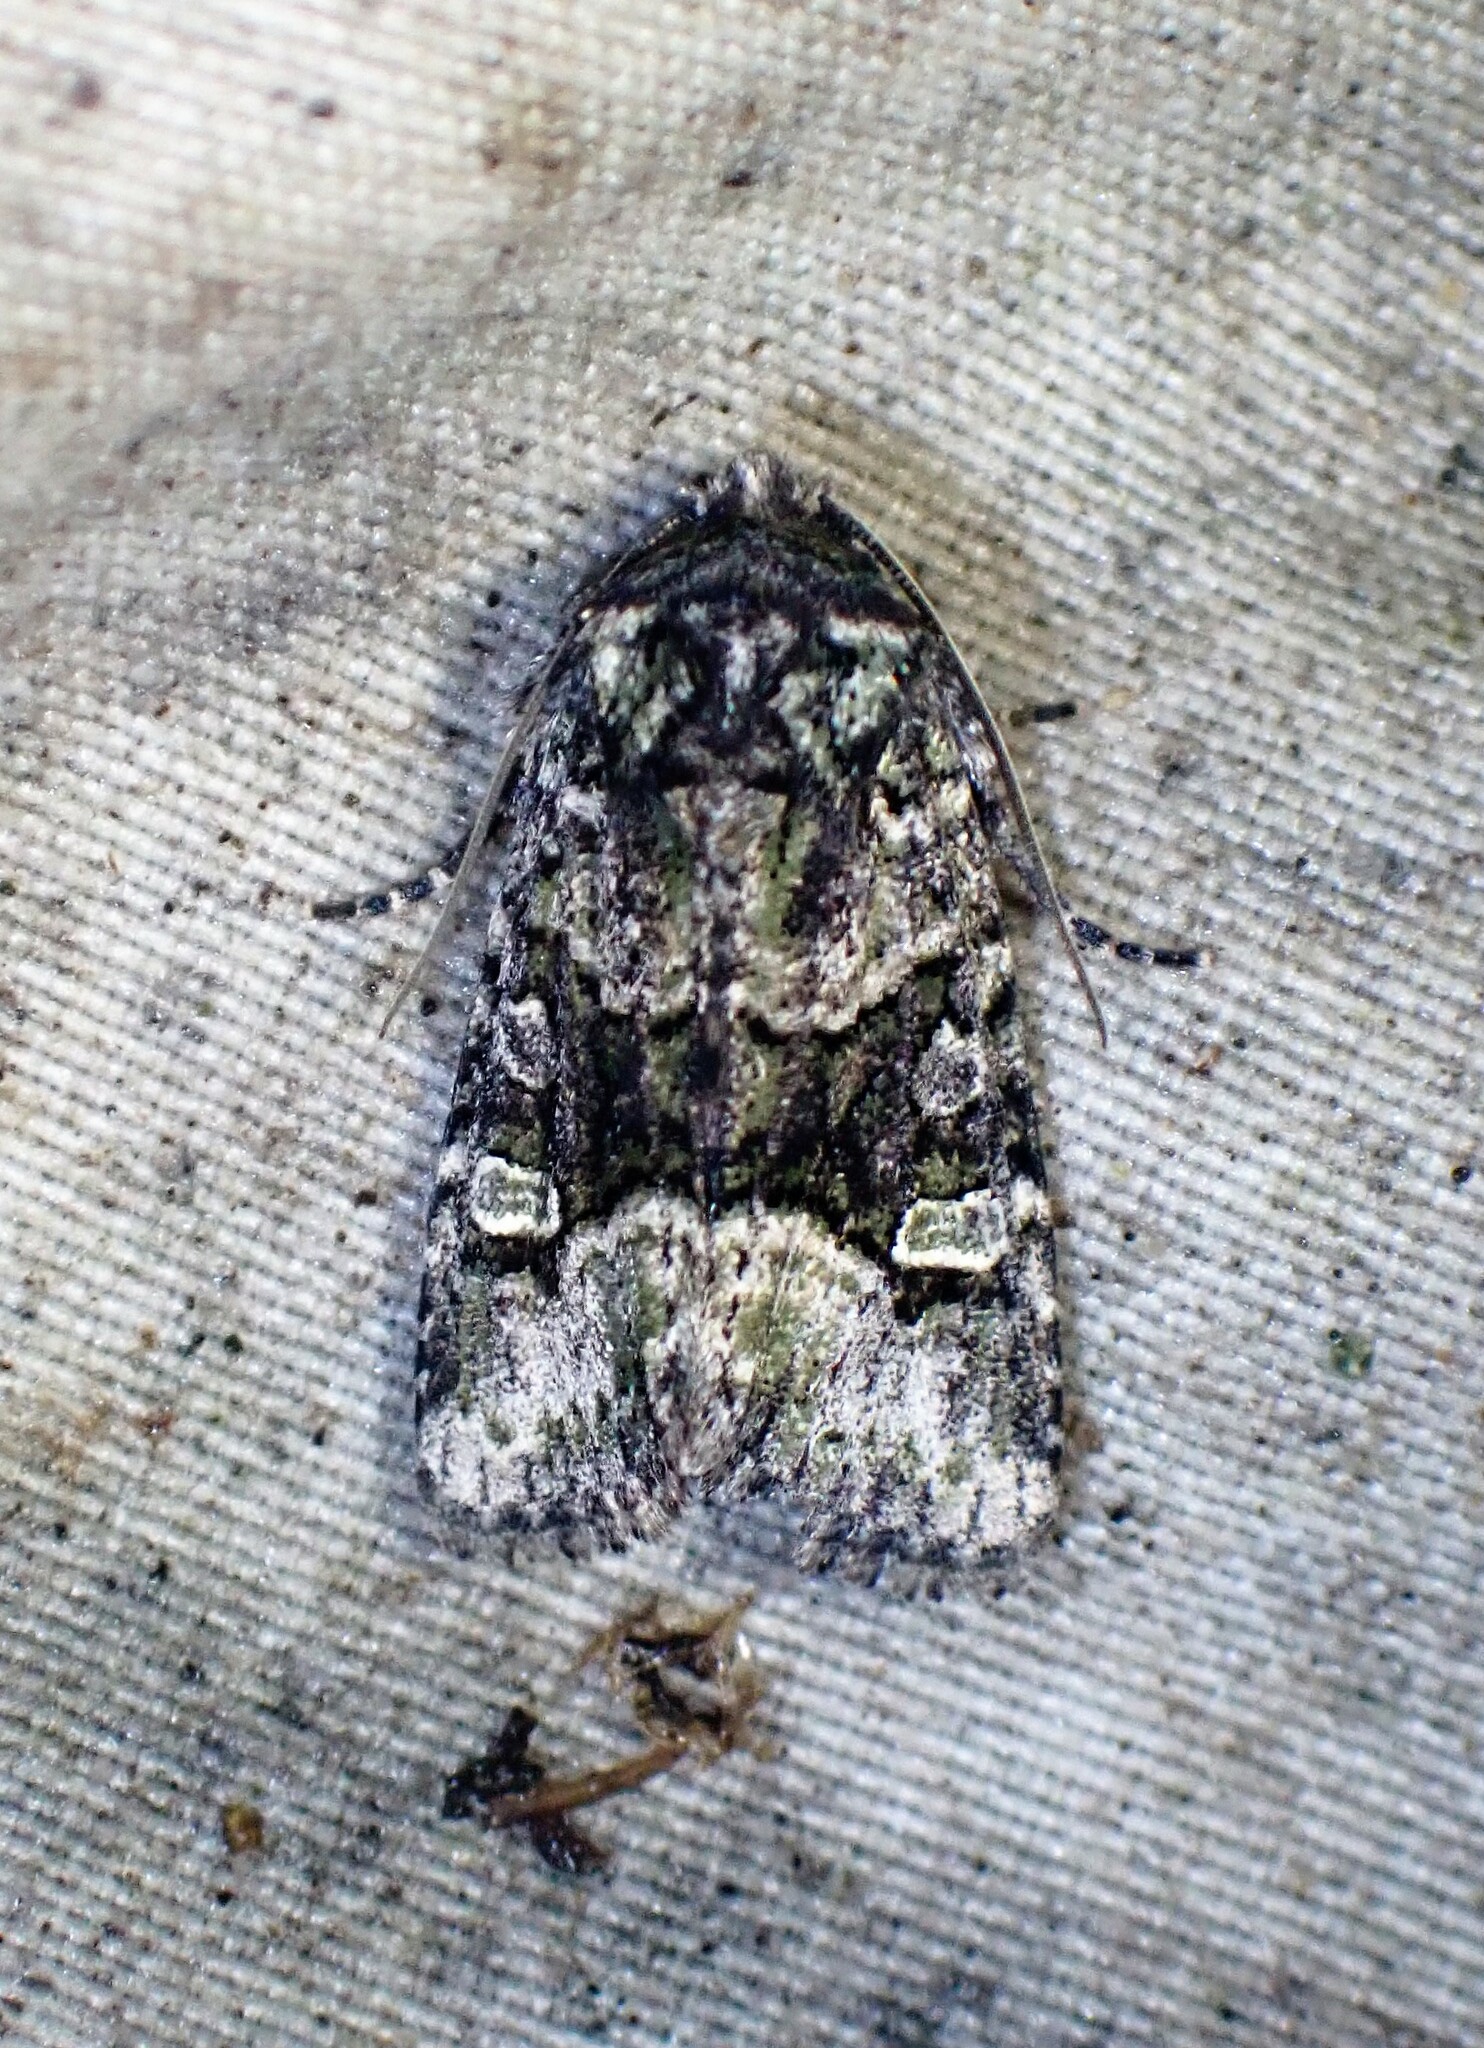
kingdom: Animalia
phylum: Arthropoda
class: Insecta
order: Lepidoptera
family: Noctuidae
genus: Lacinipolia
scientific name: Lacinipolia olivacea
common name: Olive arches moth
